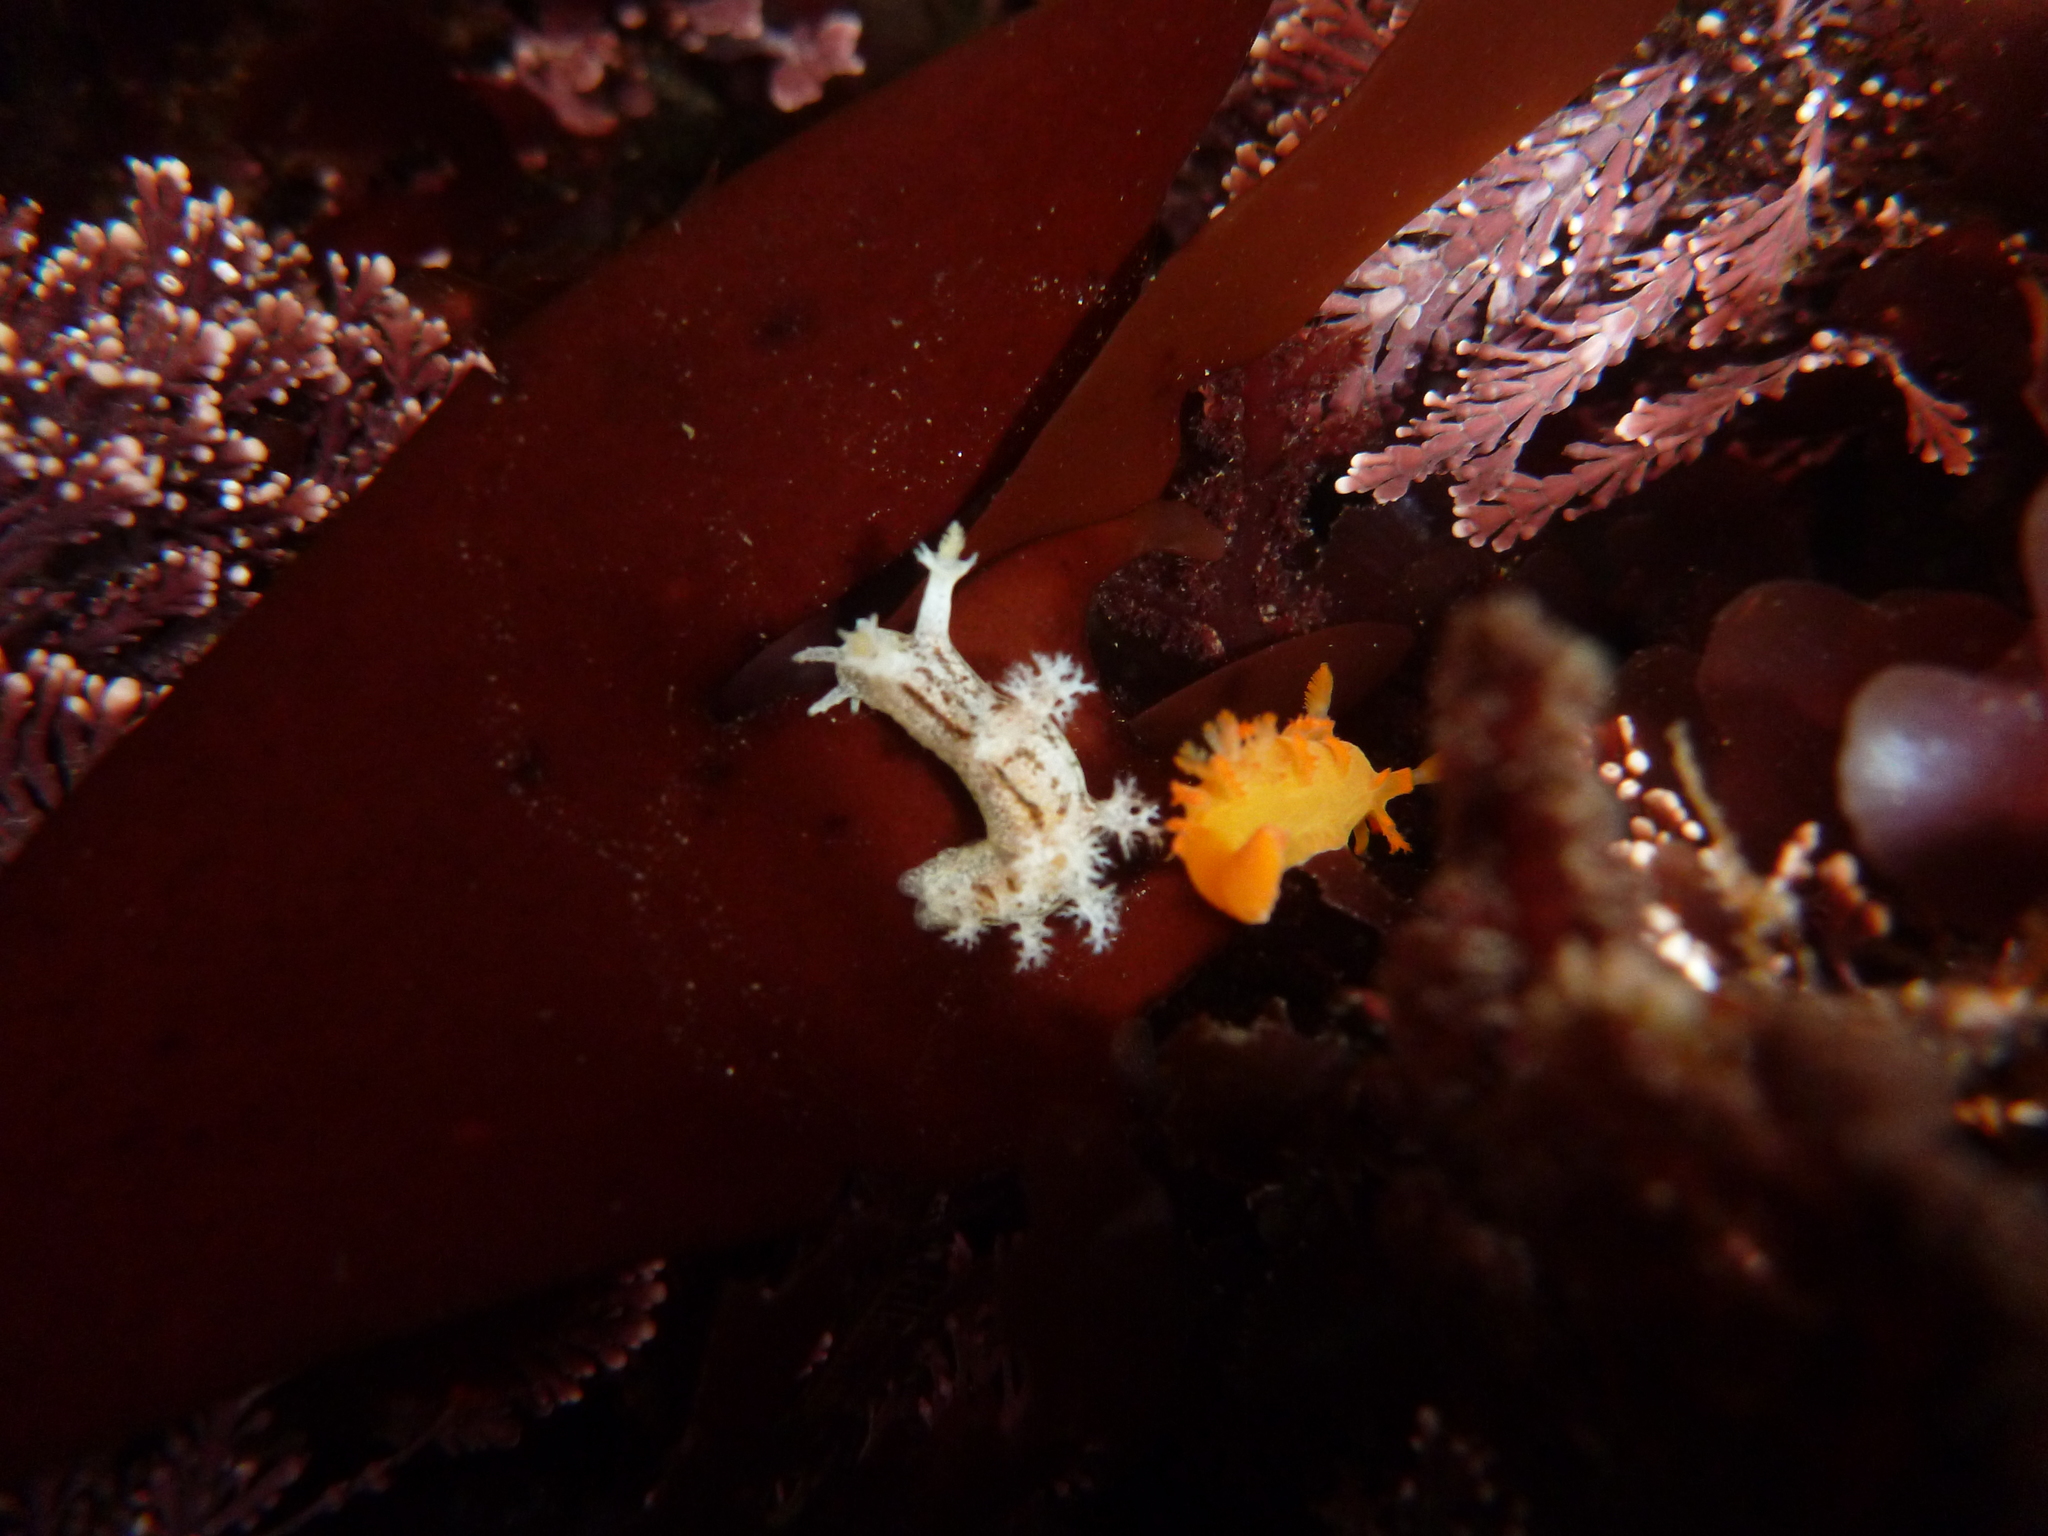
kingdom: Animalia
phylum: Mollusca
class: Gastropoda
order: Nudibranchia
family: Dendronotidae
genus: Dendronotus
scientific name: Dendronotus subramosus
